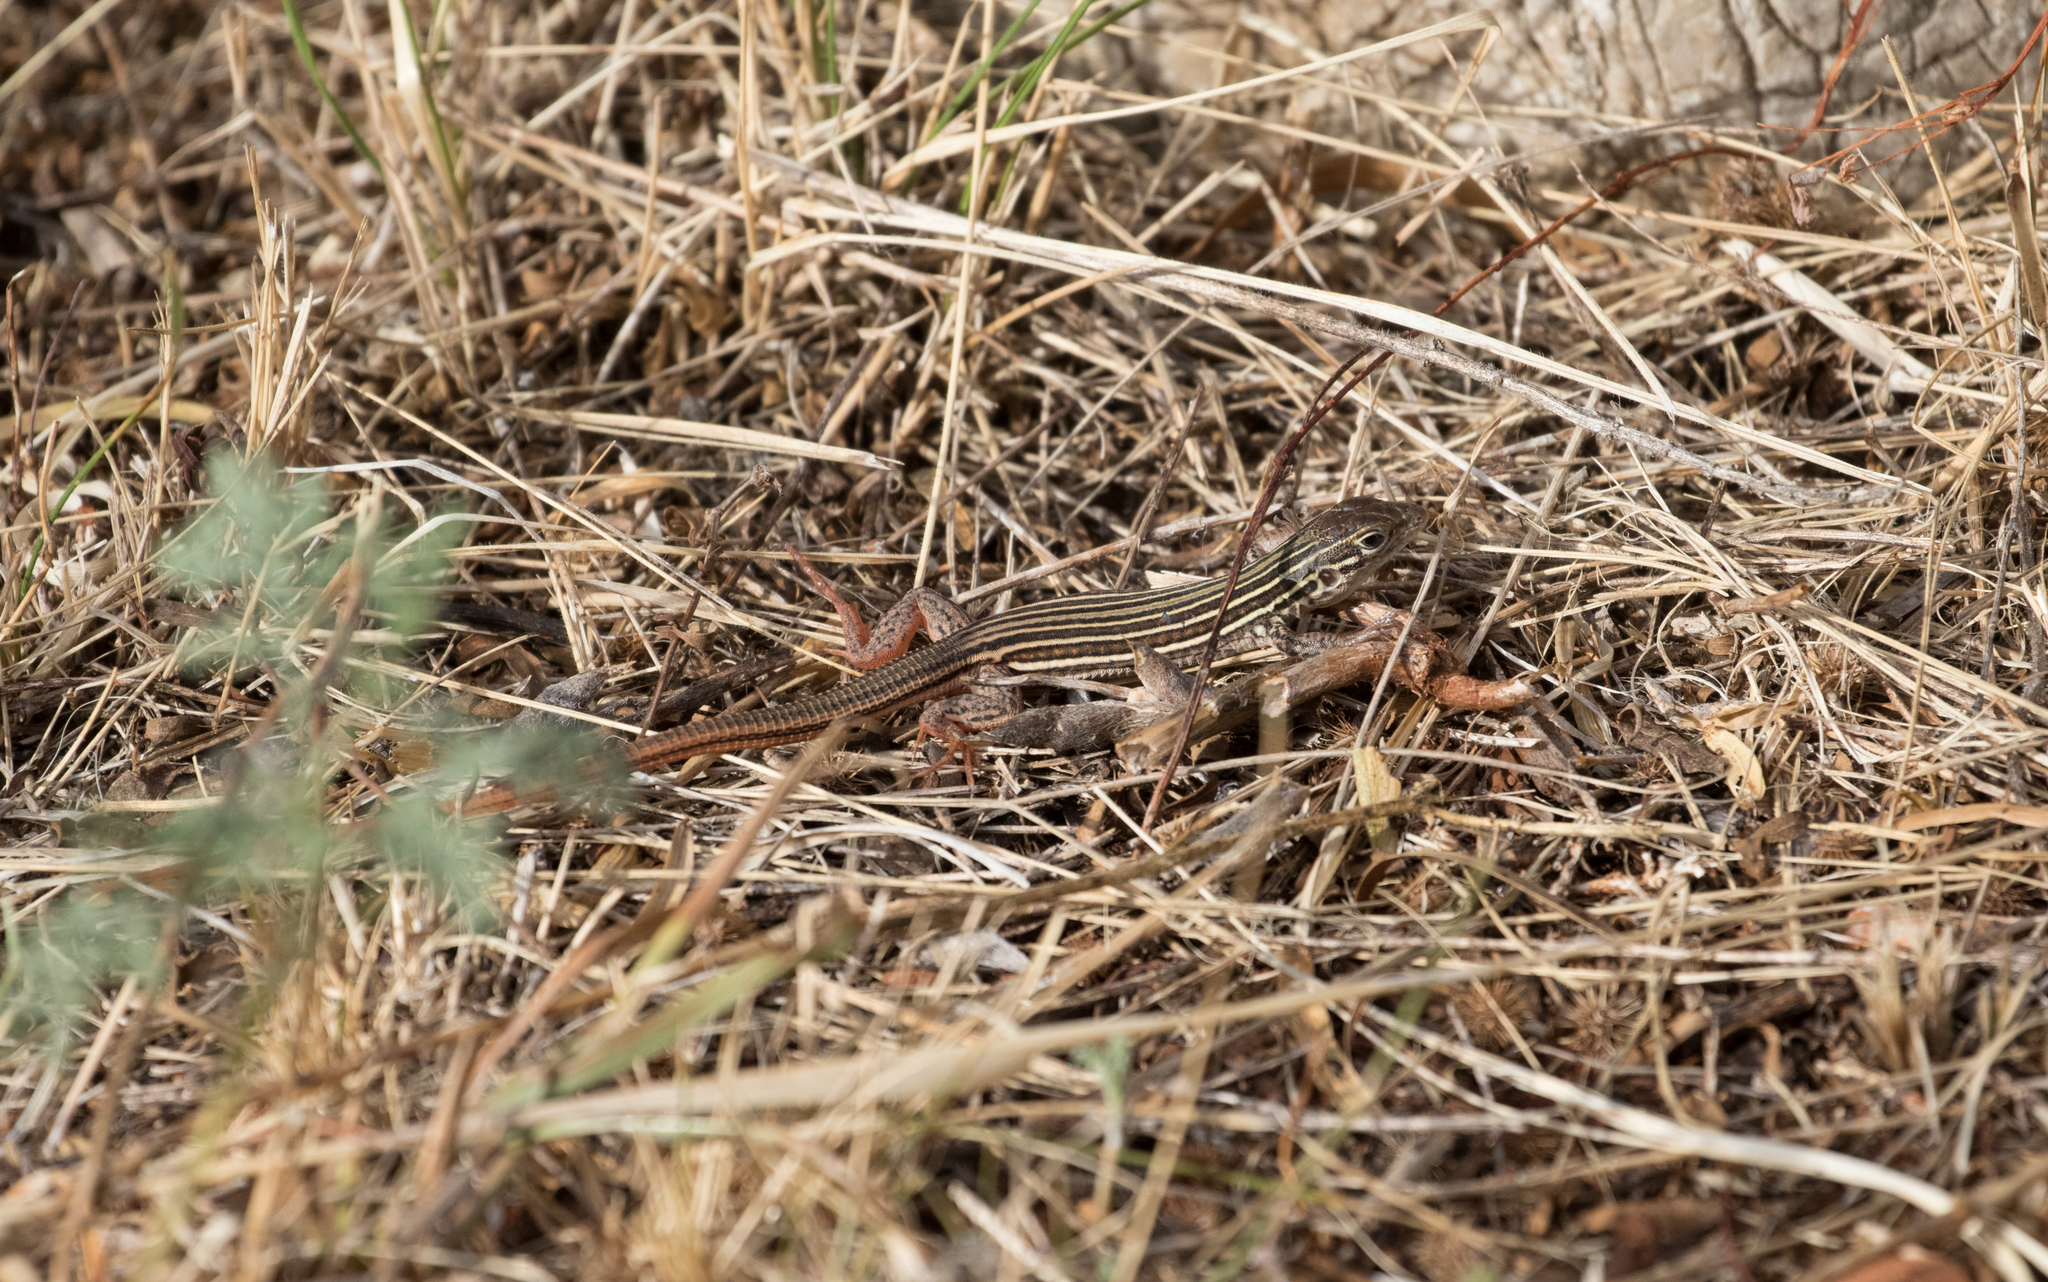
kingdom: Animalia
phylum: Chordata
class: Squamata
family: Teiidae
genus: Aspidoscelis
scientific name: Aspidoscelis gularis
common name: Eastern spotted whiptail
